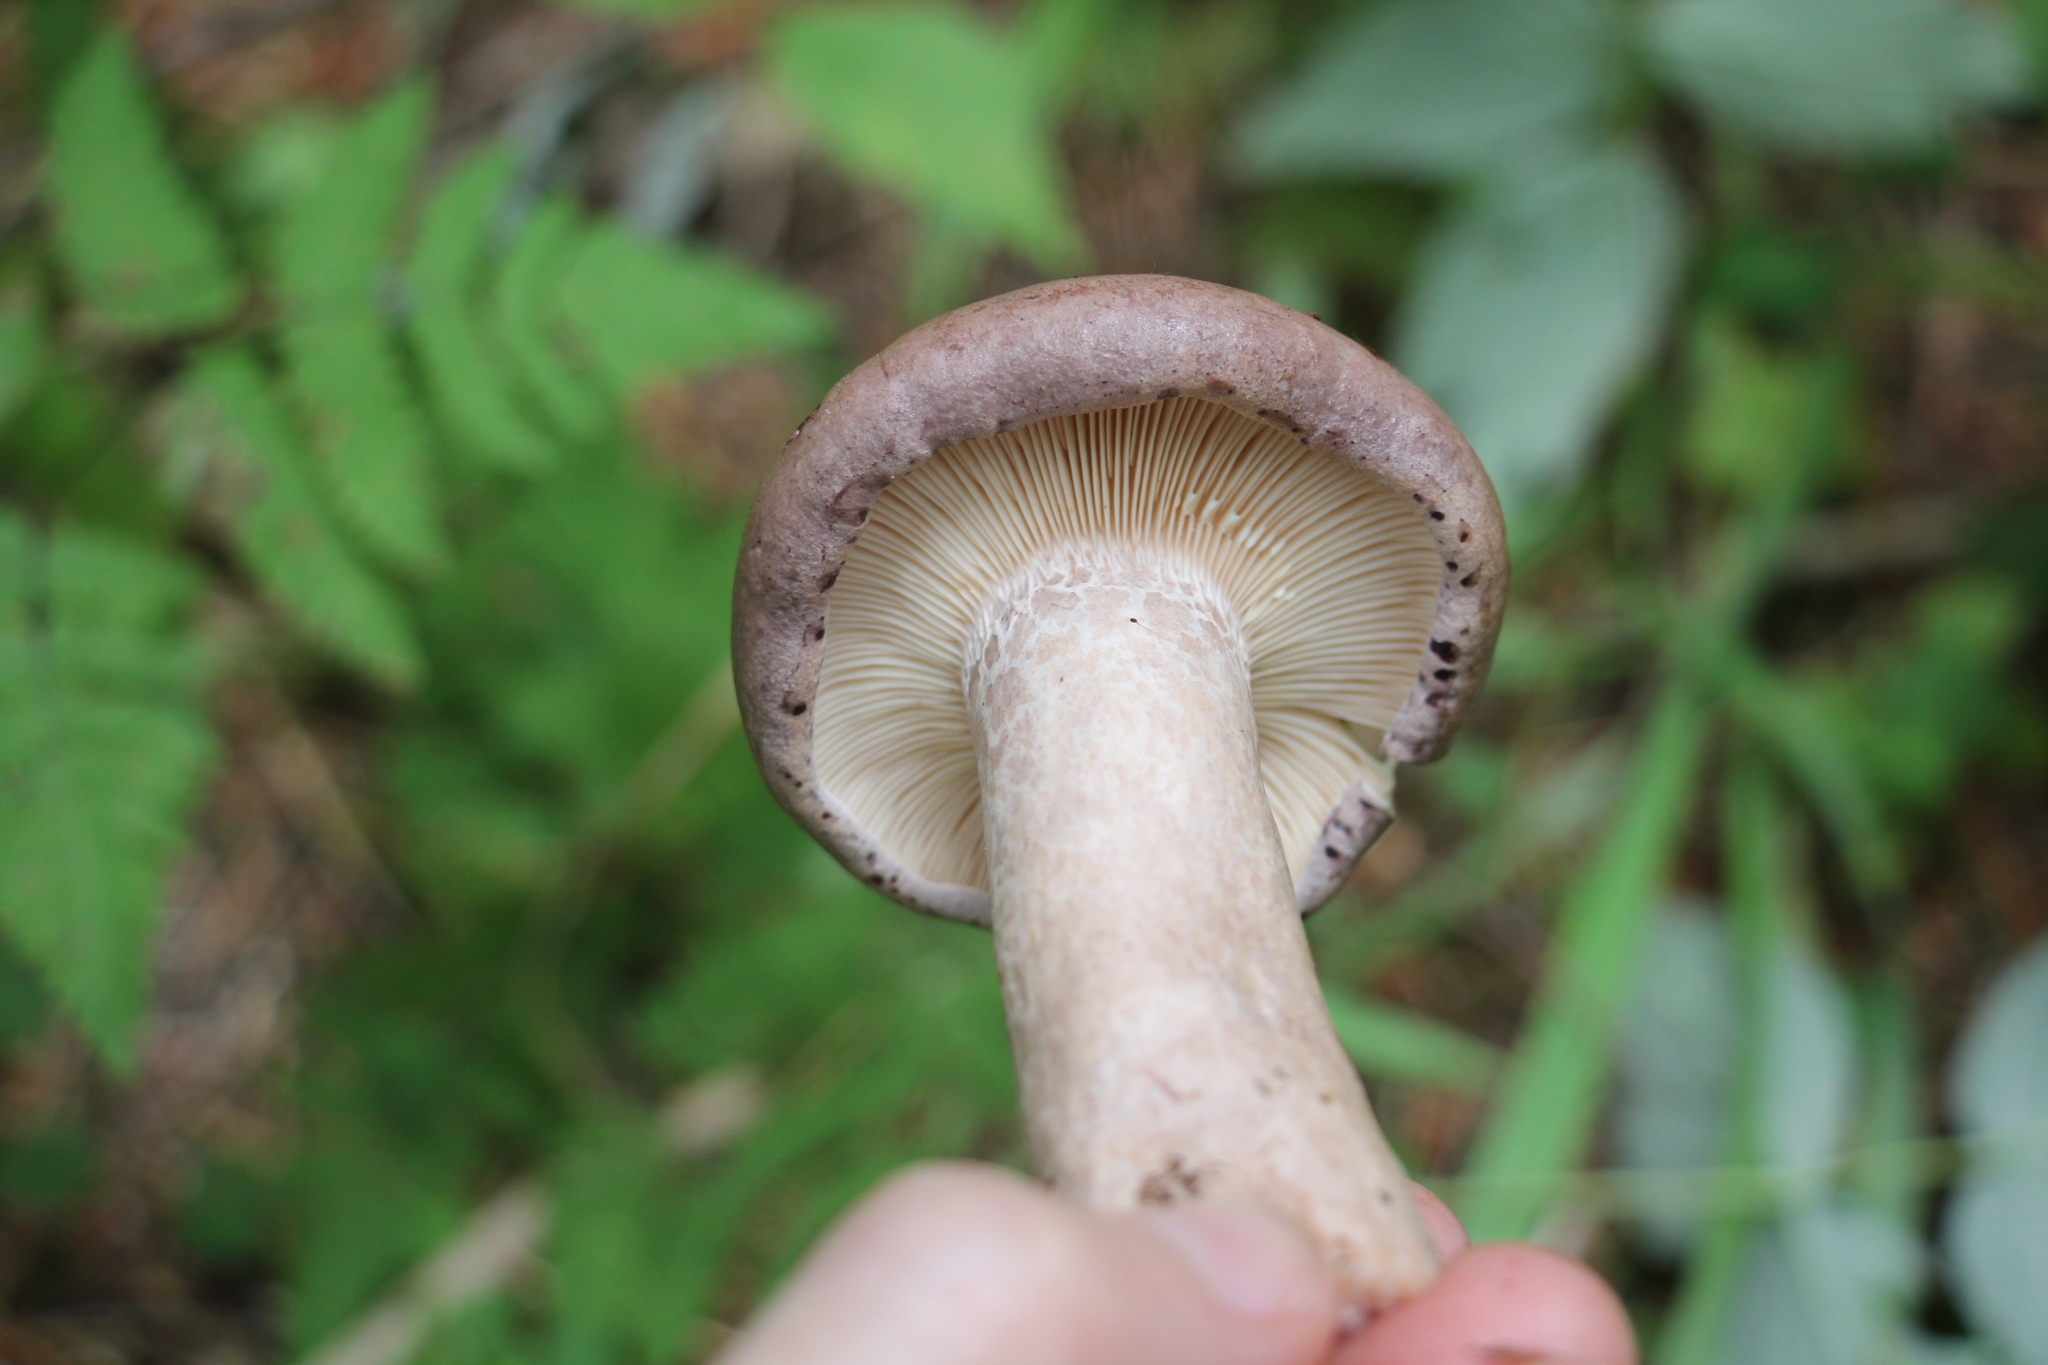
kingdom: Fungi
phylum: Basidiomycota
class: Agaricomycetes
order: Russulales
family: Russulaceae
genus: Lactarius
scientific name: Lactarius trivialis
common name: Tacked milkcap
